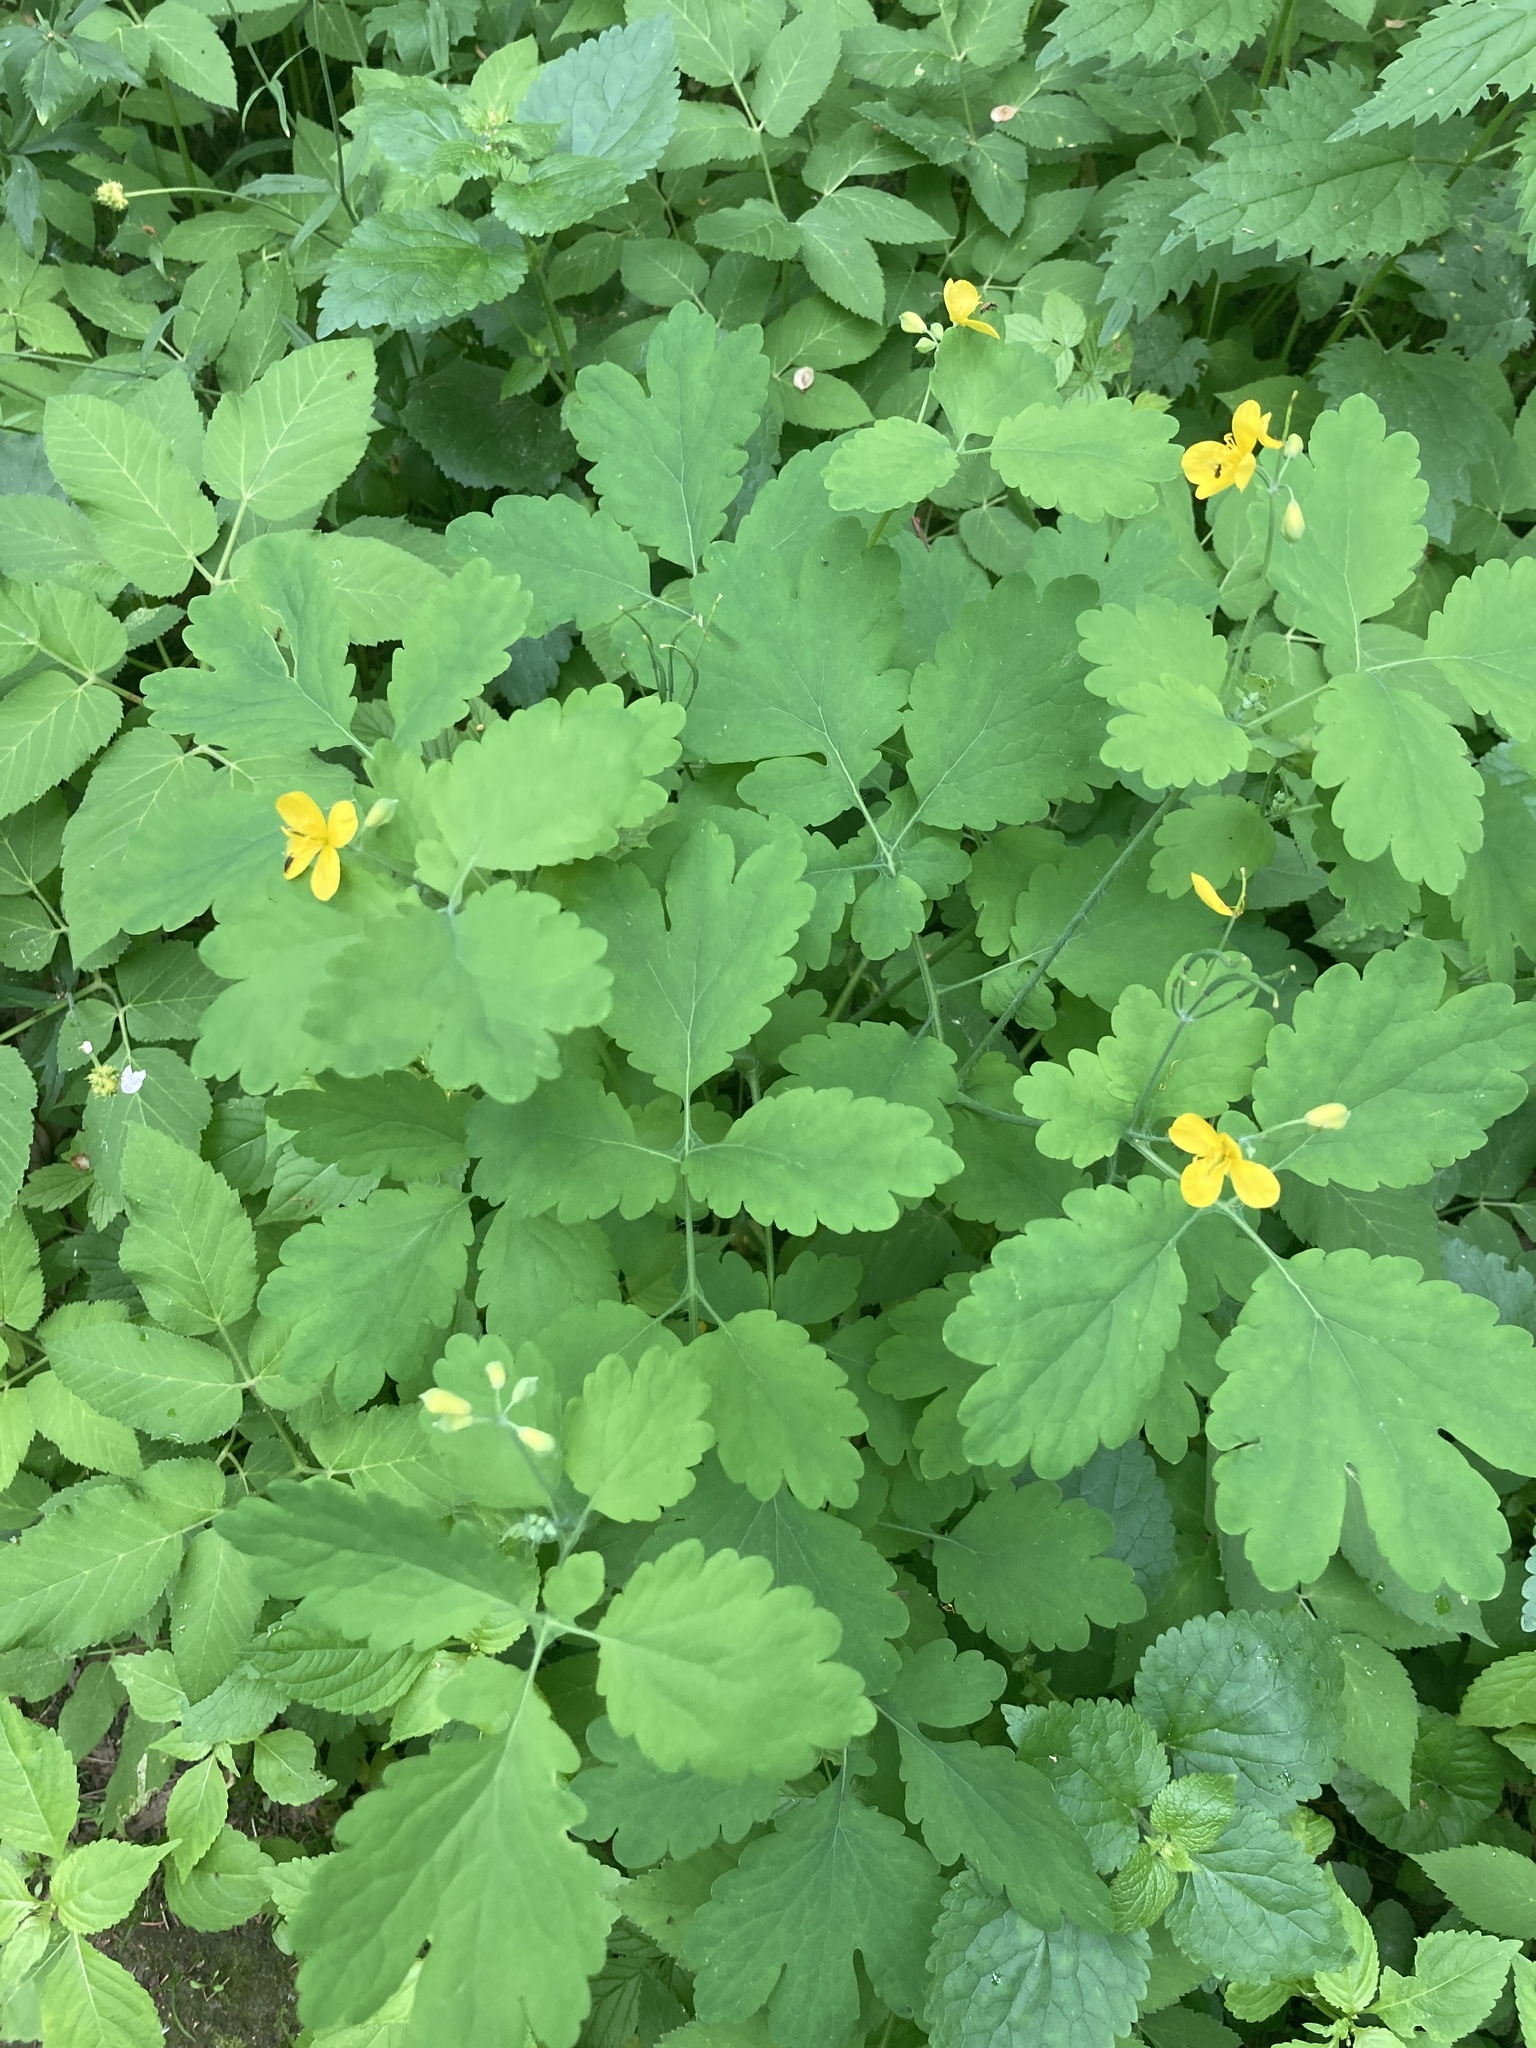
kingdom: Plantae
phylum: Tracheophyta
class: Magnoliopsida
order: Ranunculales
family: Papaveraceae
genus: Chelidonium
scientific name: Chelidonium majus
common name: Greater celandine
